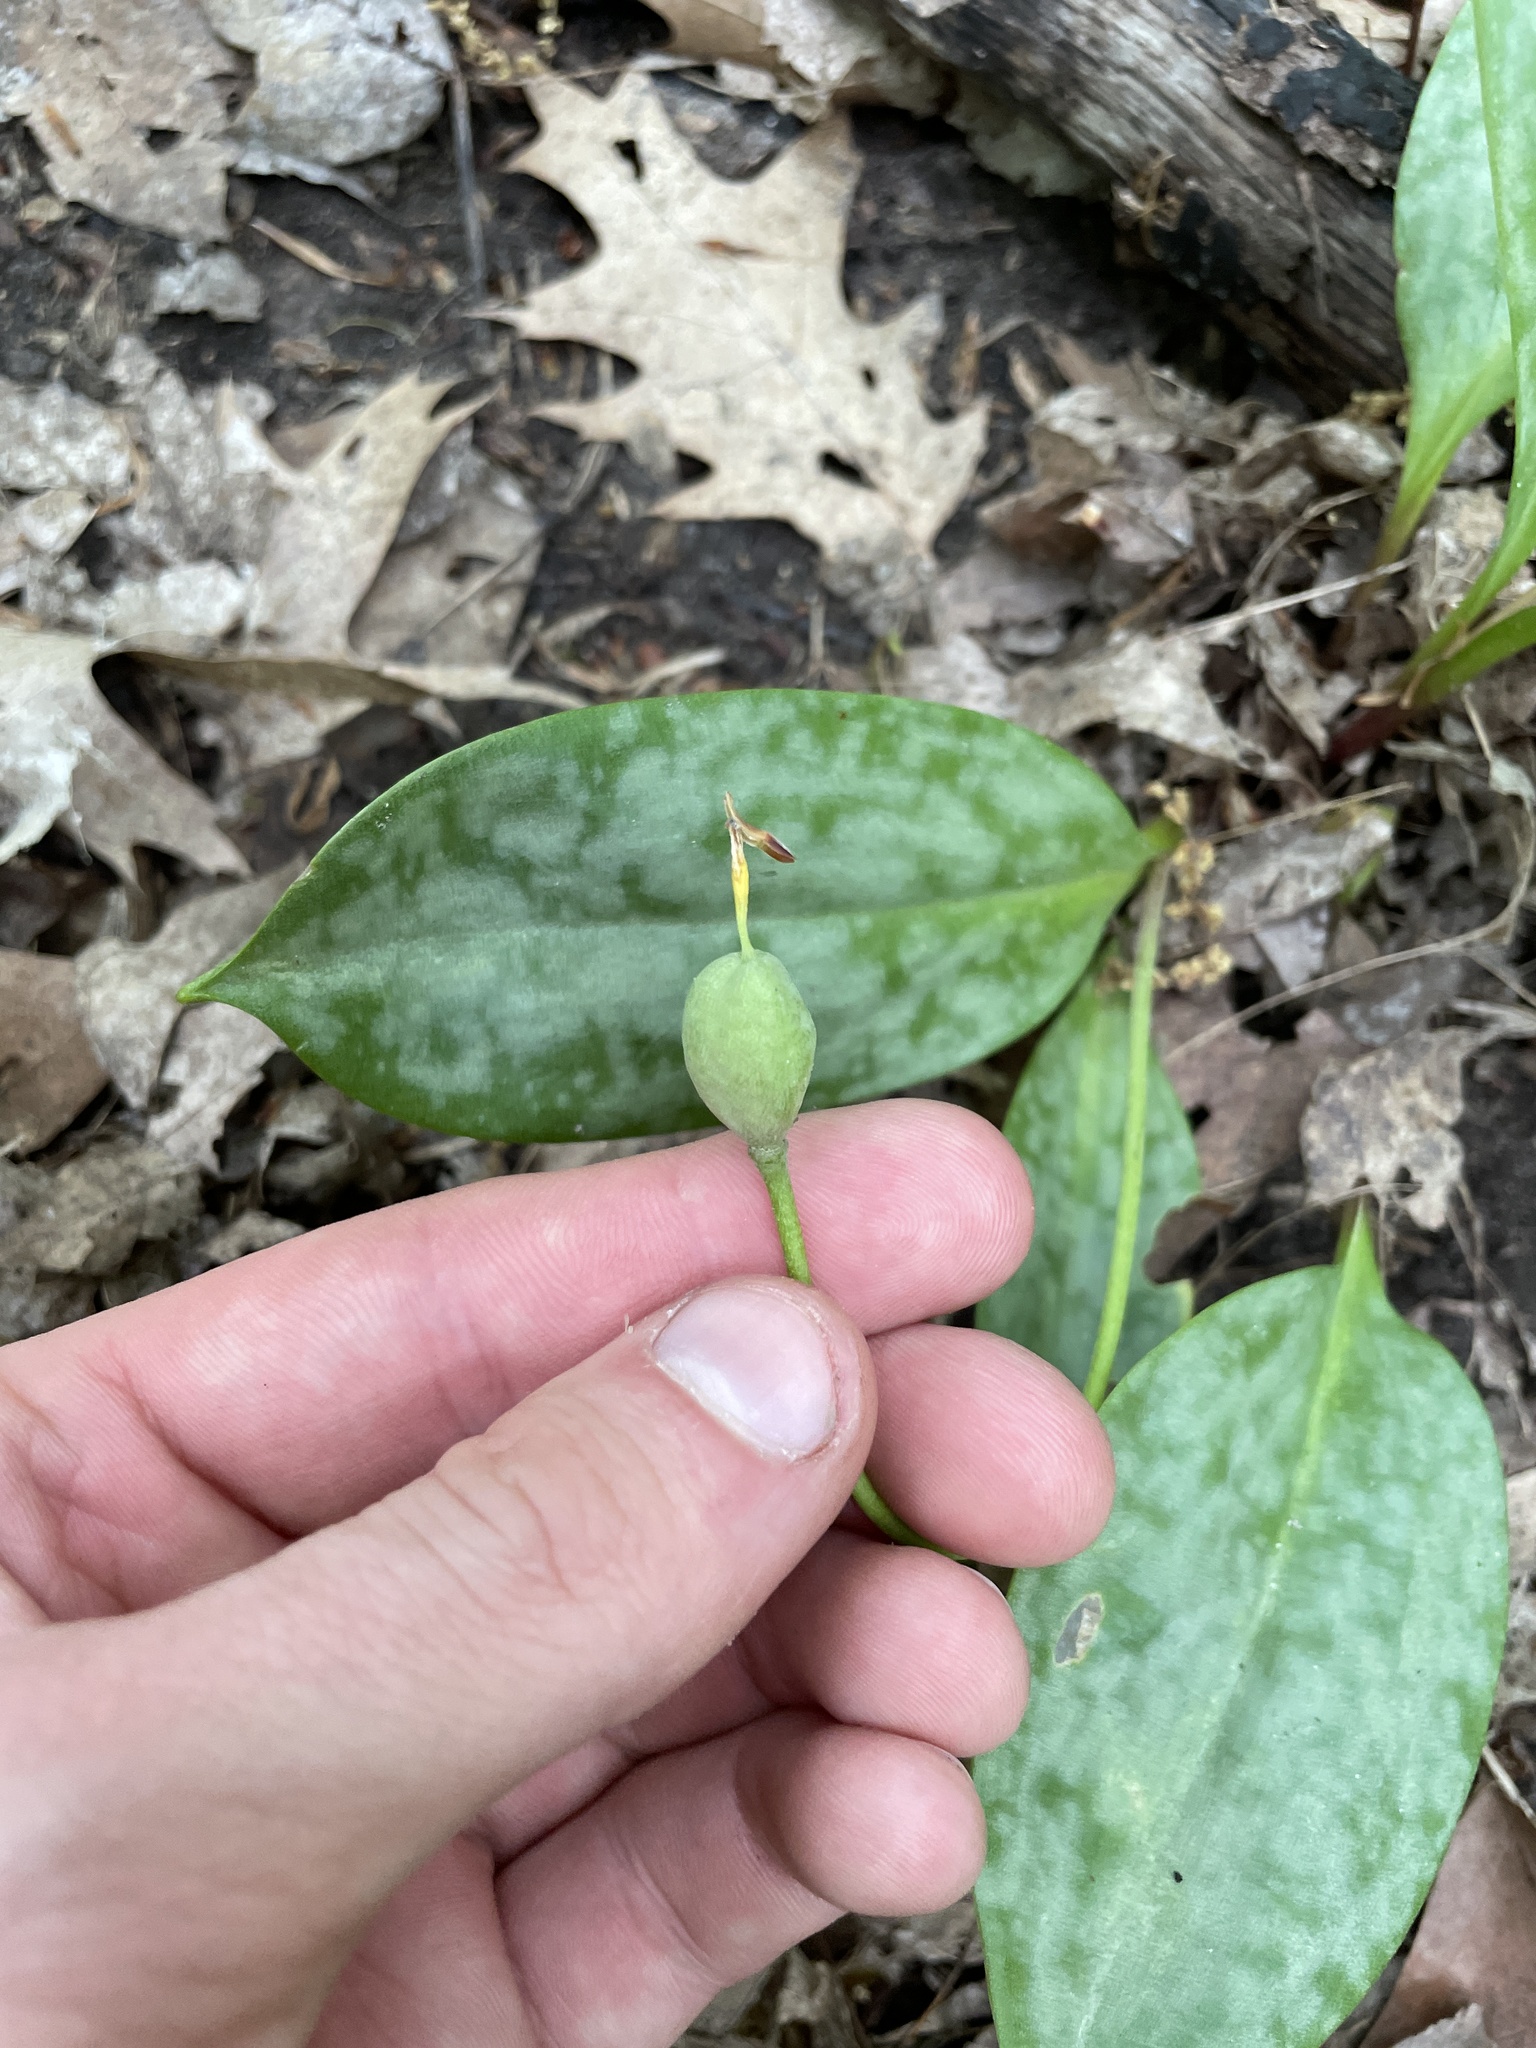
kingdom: Plantae
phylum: Tracheophyta
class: Liliopsida
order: Liliales
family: Liliaceae
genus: Erythronium
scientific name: Erythronium americanum
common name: Yellow adder's-tongue
